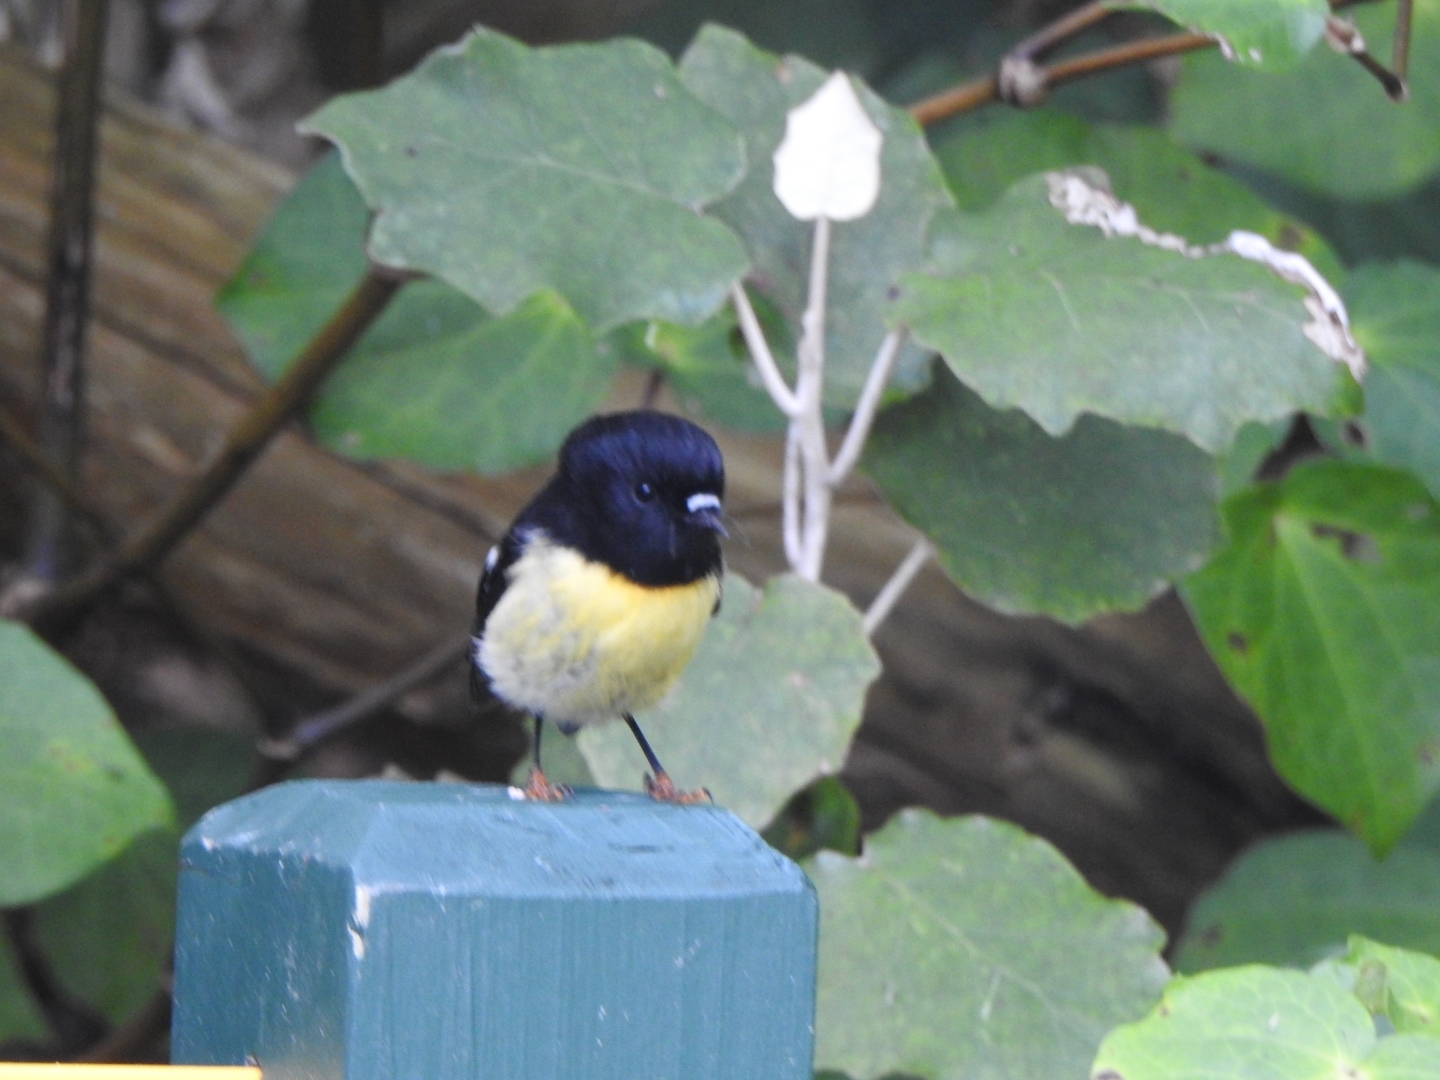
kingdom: Animalia
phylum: Chordata
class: Aves
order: Passeriformes
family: Petroicidae
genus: Petroica
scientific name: Petroica macrocephala
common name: Tomtit
